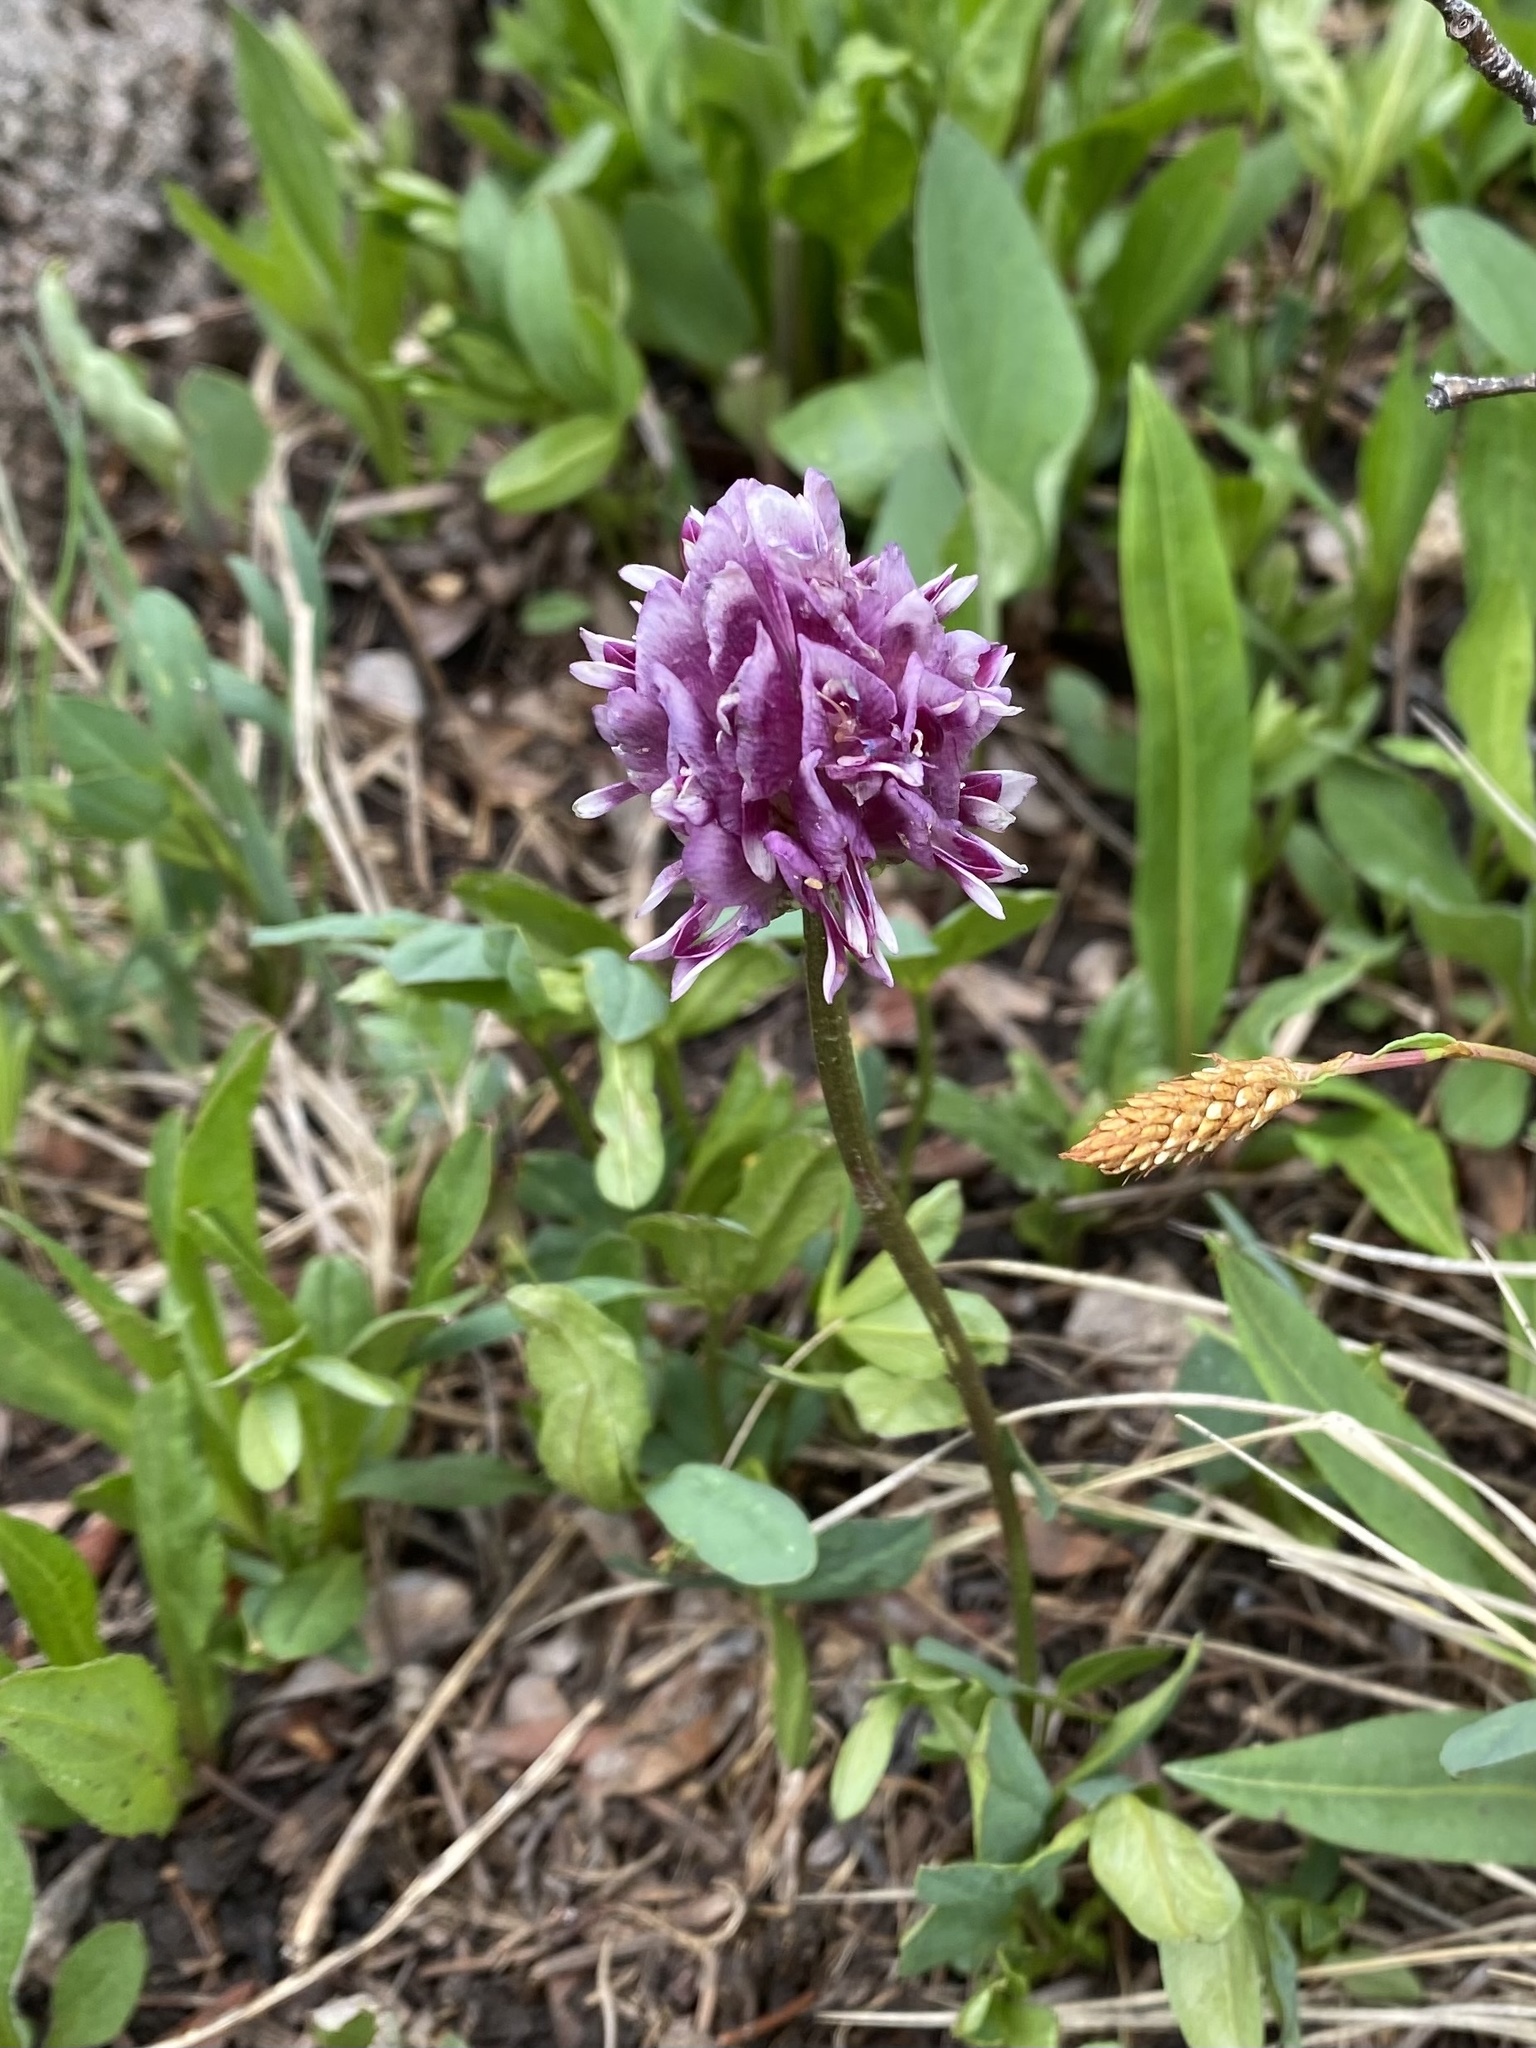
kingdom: Plantae
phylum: Tracheophyta
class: Magnoliopsida
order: Fabales
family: Fabaceae
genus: Trifolium
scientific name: Trifolium parryi
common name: Parry's clover
